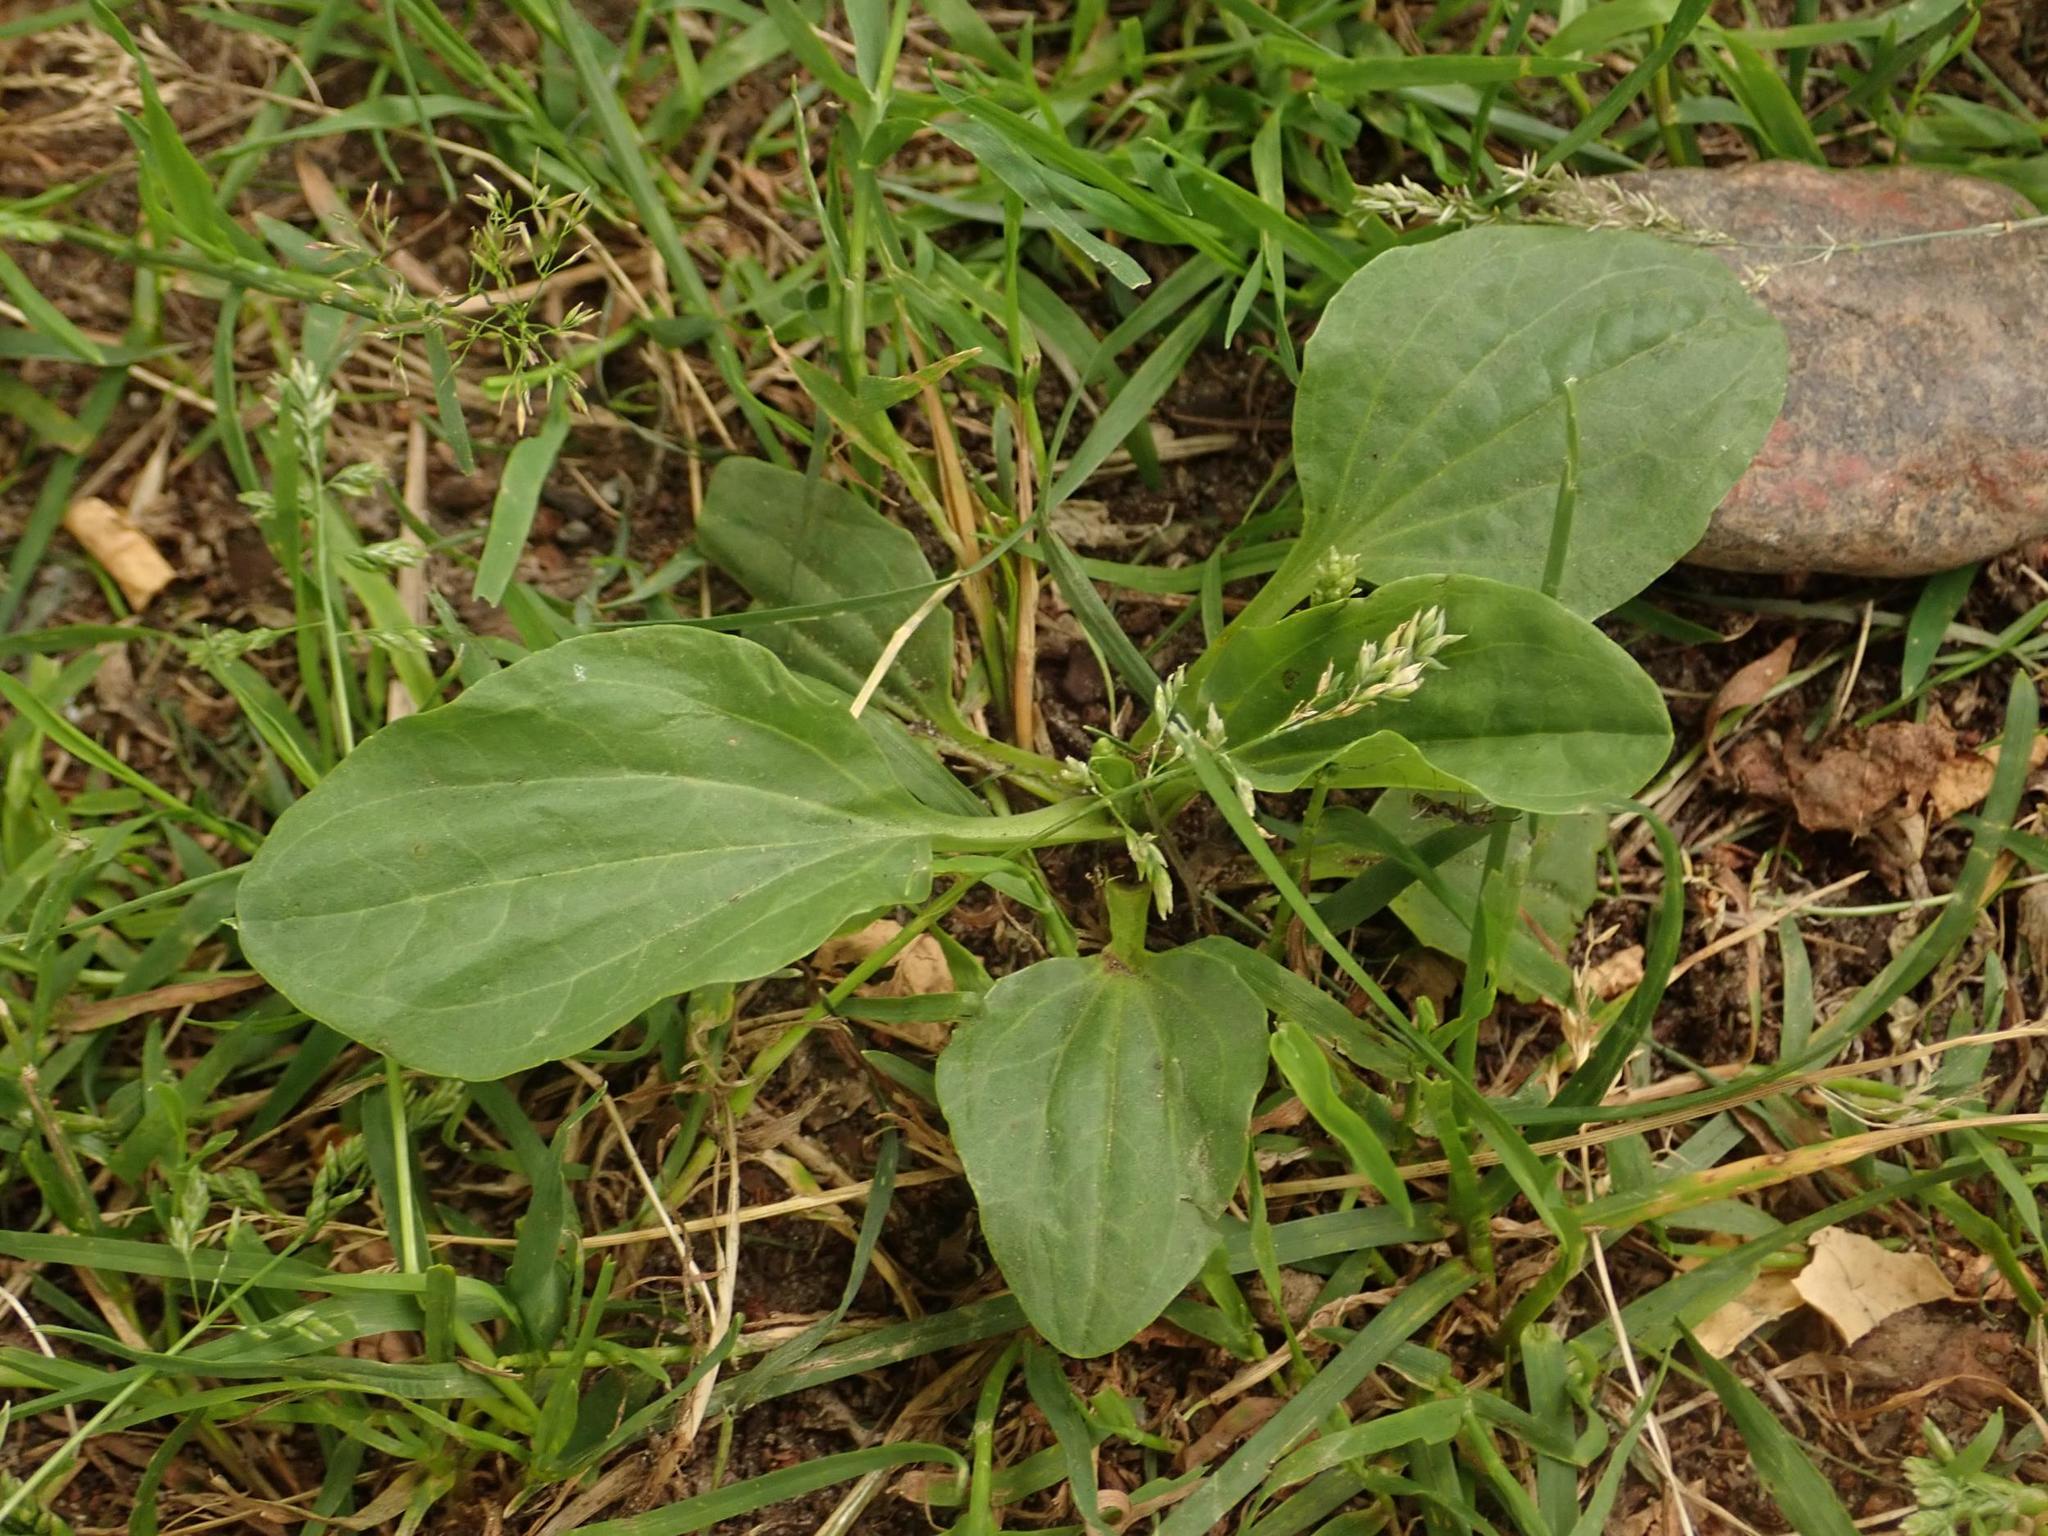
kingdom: Plantae
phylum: Tracheophyta
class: Magnoliopsida
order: Lamiales
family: Plantaginaceae
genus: Plantago
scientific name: Plantago major
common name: Common plantain
